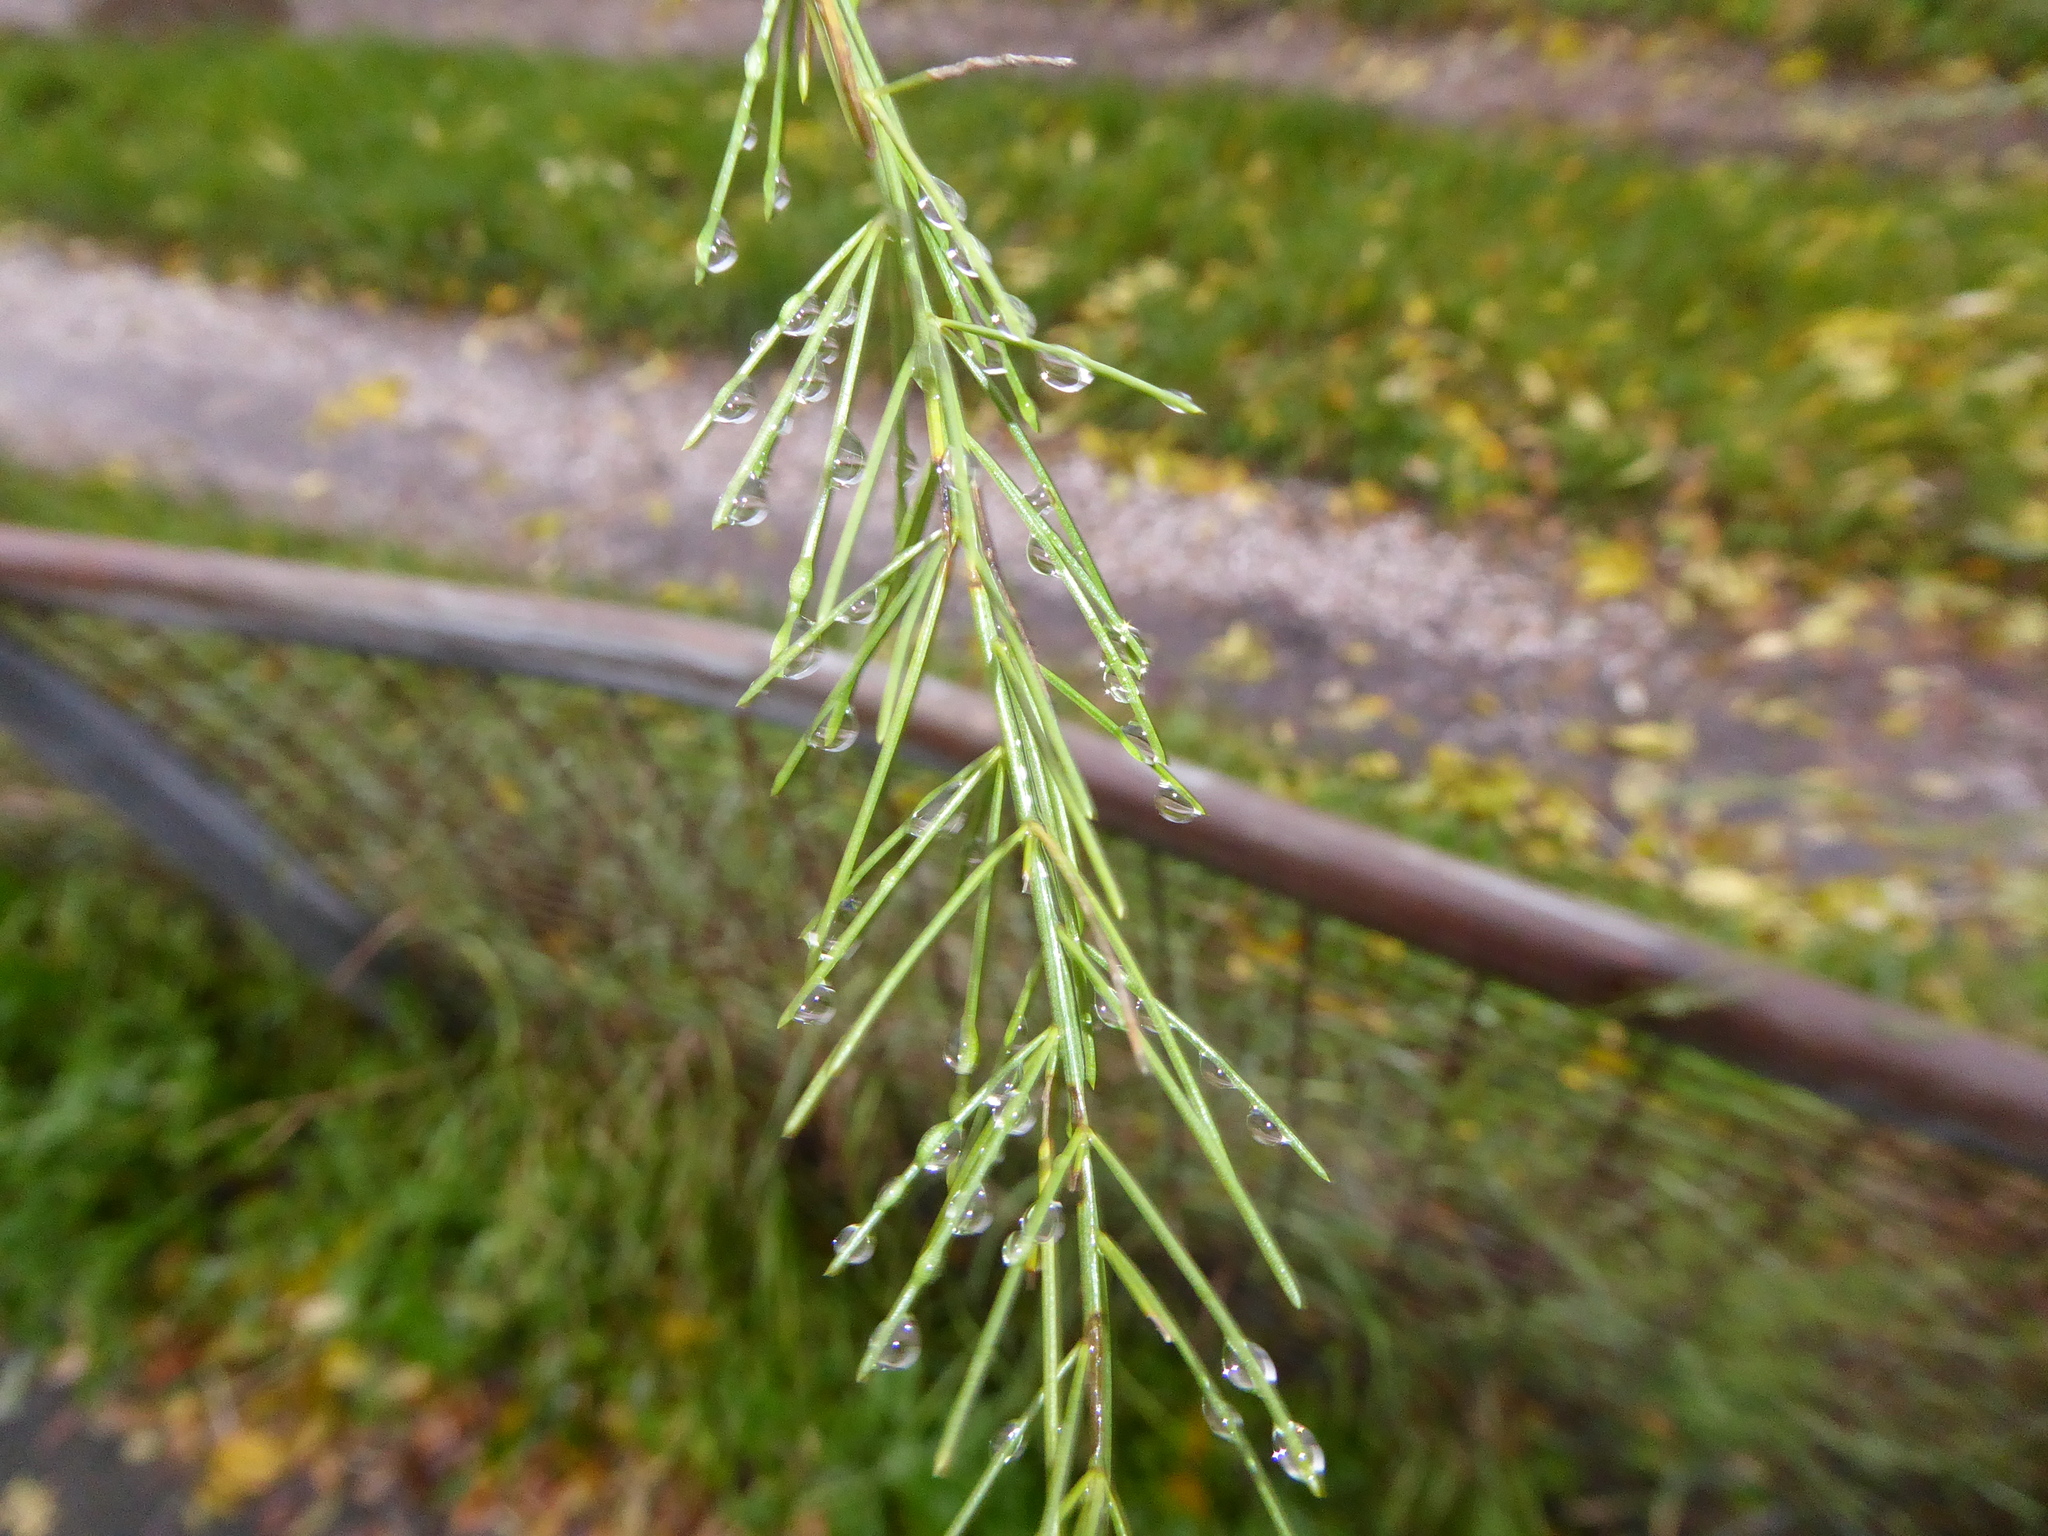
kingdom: Plantae
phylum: Tracheophyta
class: Liliopsida
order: Asparagales
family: Asparagaceae
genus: Asparagus
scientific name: Asparagus officinalis
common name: Garden asparagus
